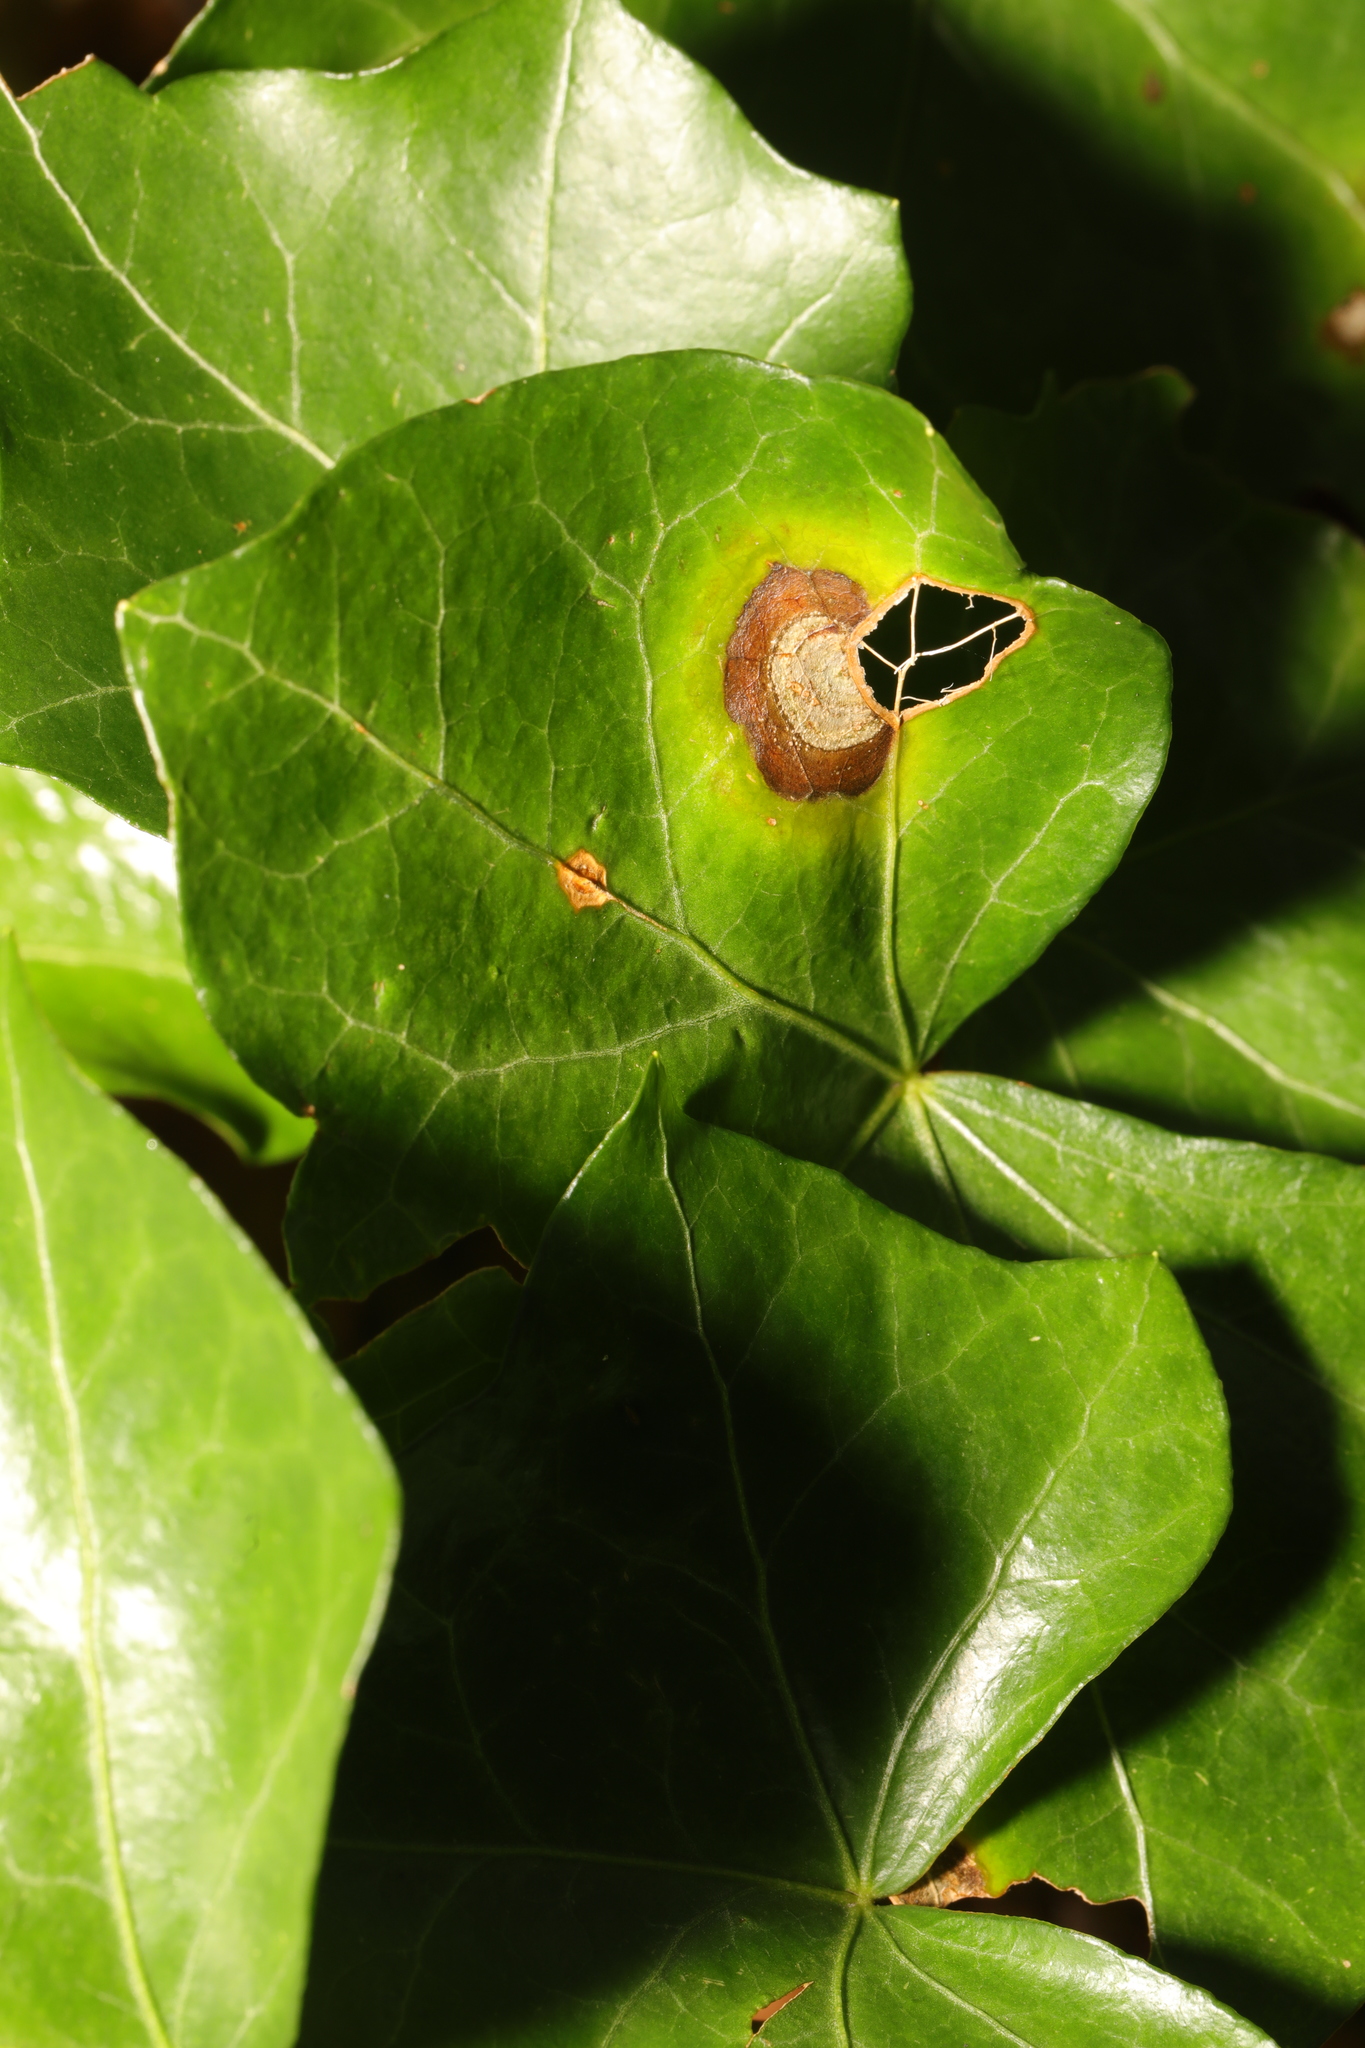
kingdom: Fungi
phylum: Ascomycota
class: Dothideomycetes
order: Pleosporales
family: Didymellaceae
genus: Boeremia
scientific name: Boeremia hedericola
